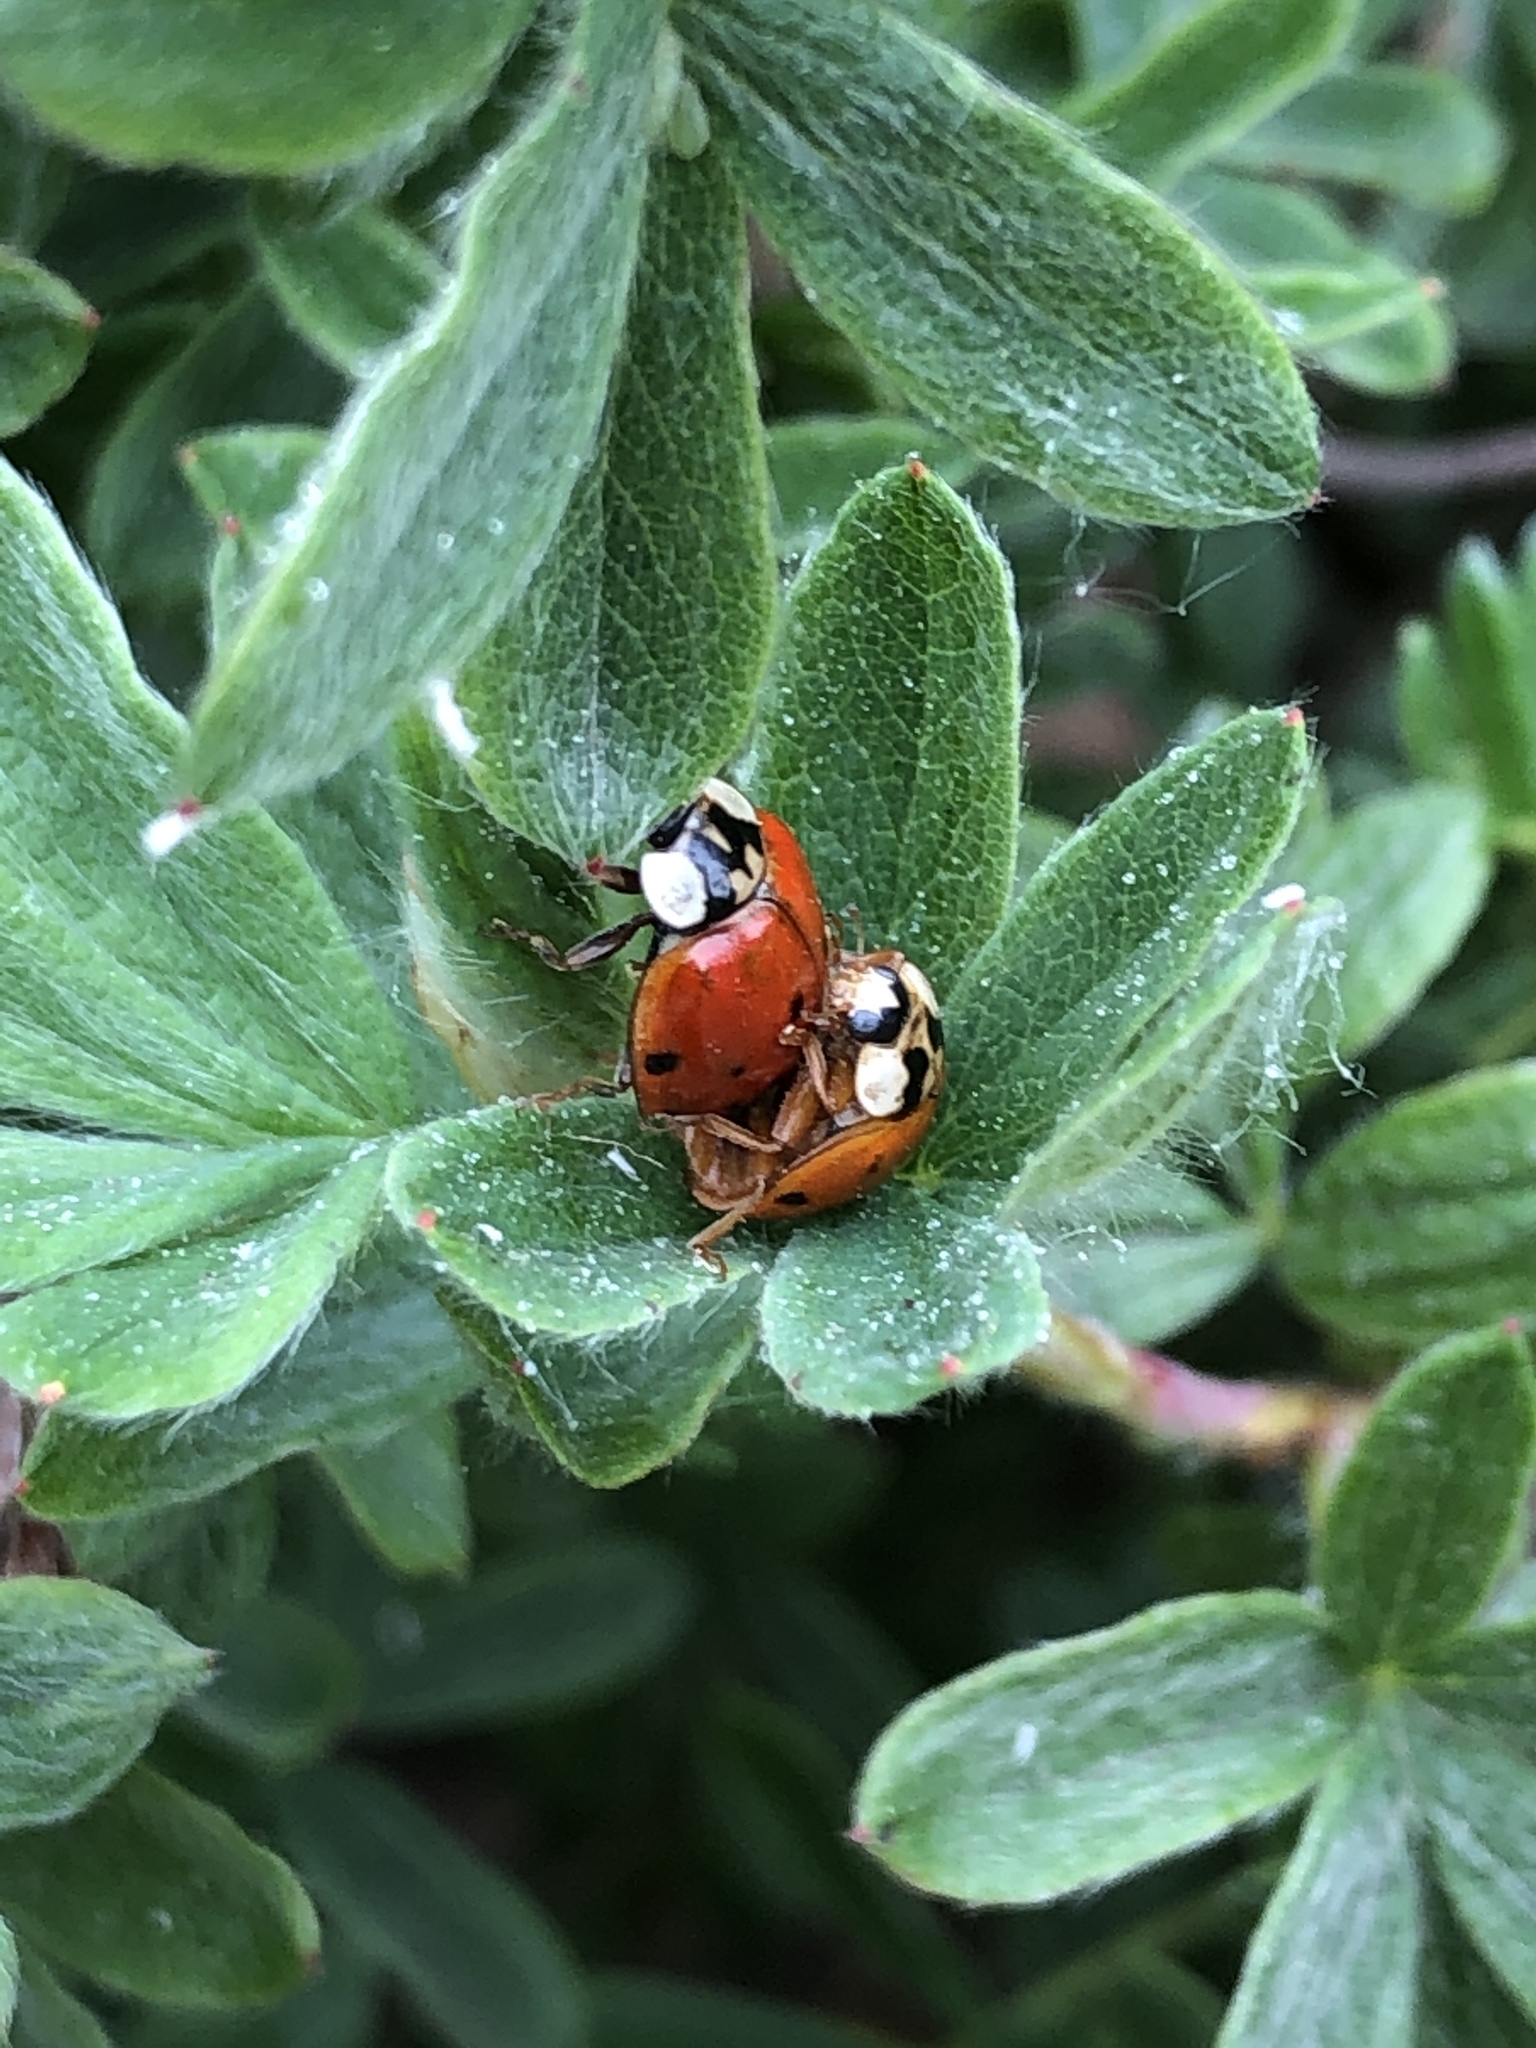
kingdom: Animalia
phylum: Arthropoda
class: Insecta
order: Coleoptera
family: Coccinellidae
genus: Harmonia
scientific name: Harmonia axyridis
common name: Harlequin ladybird
